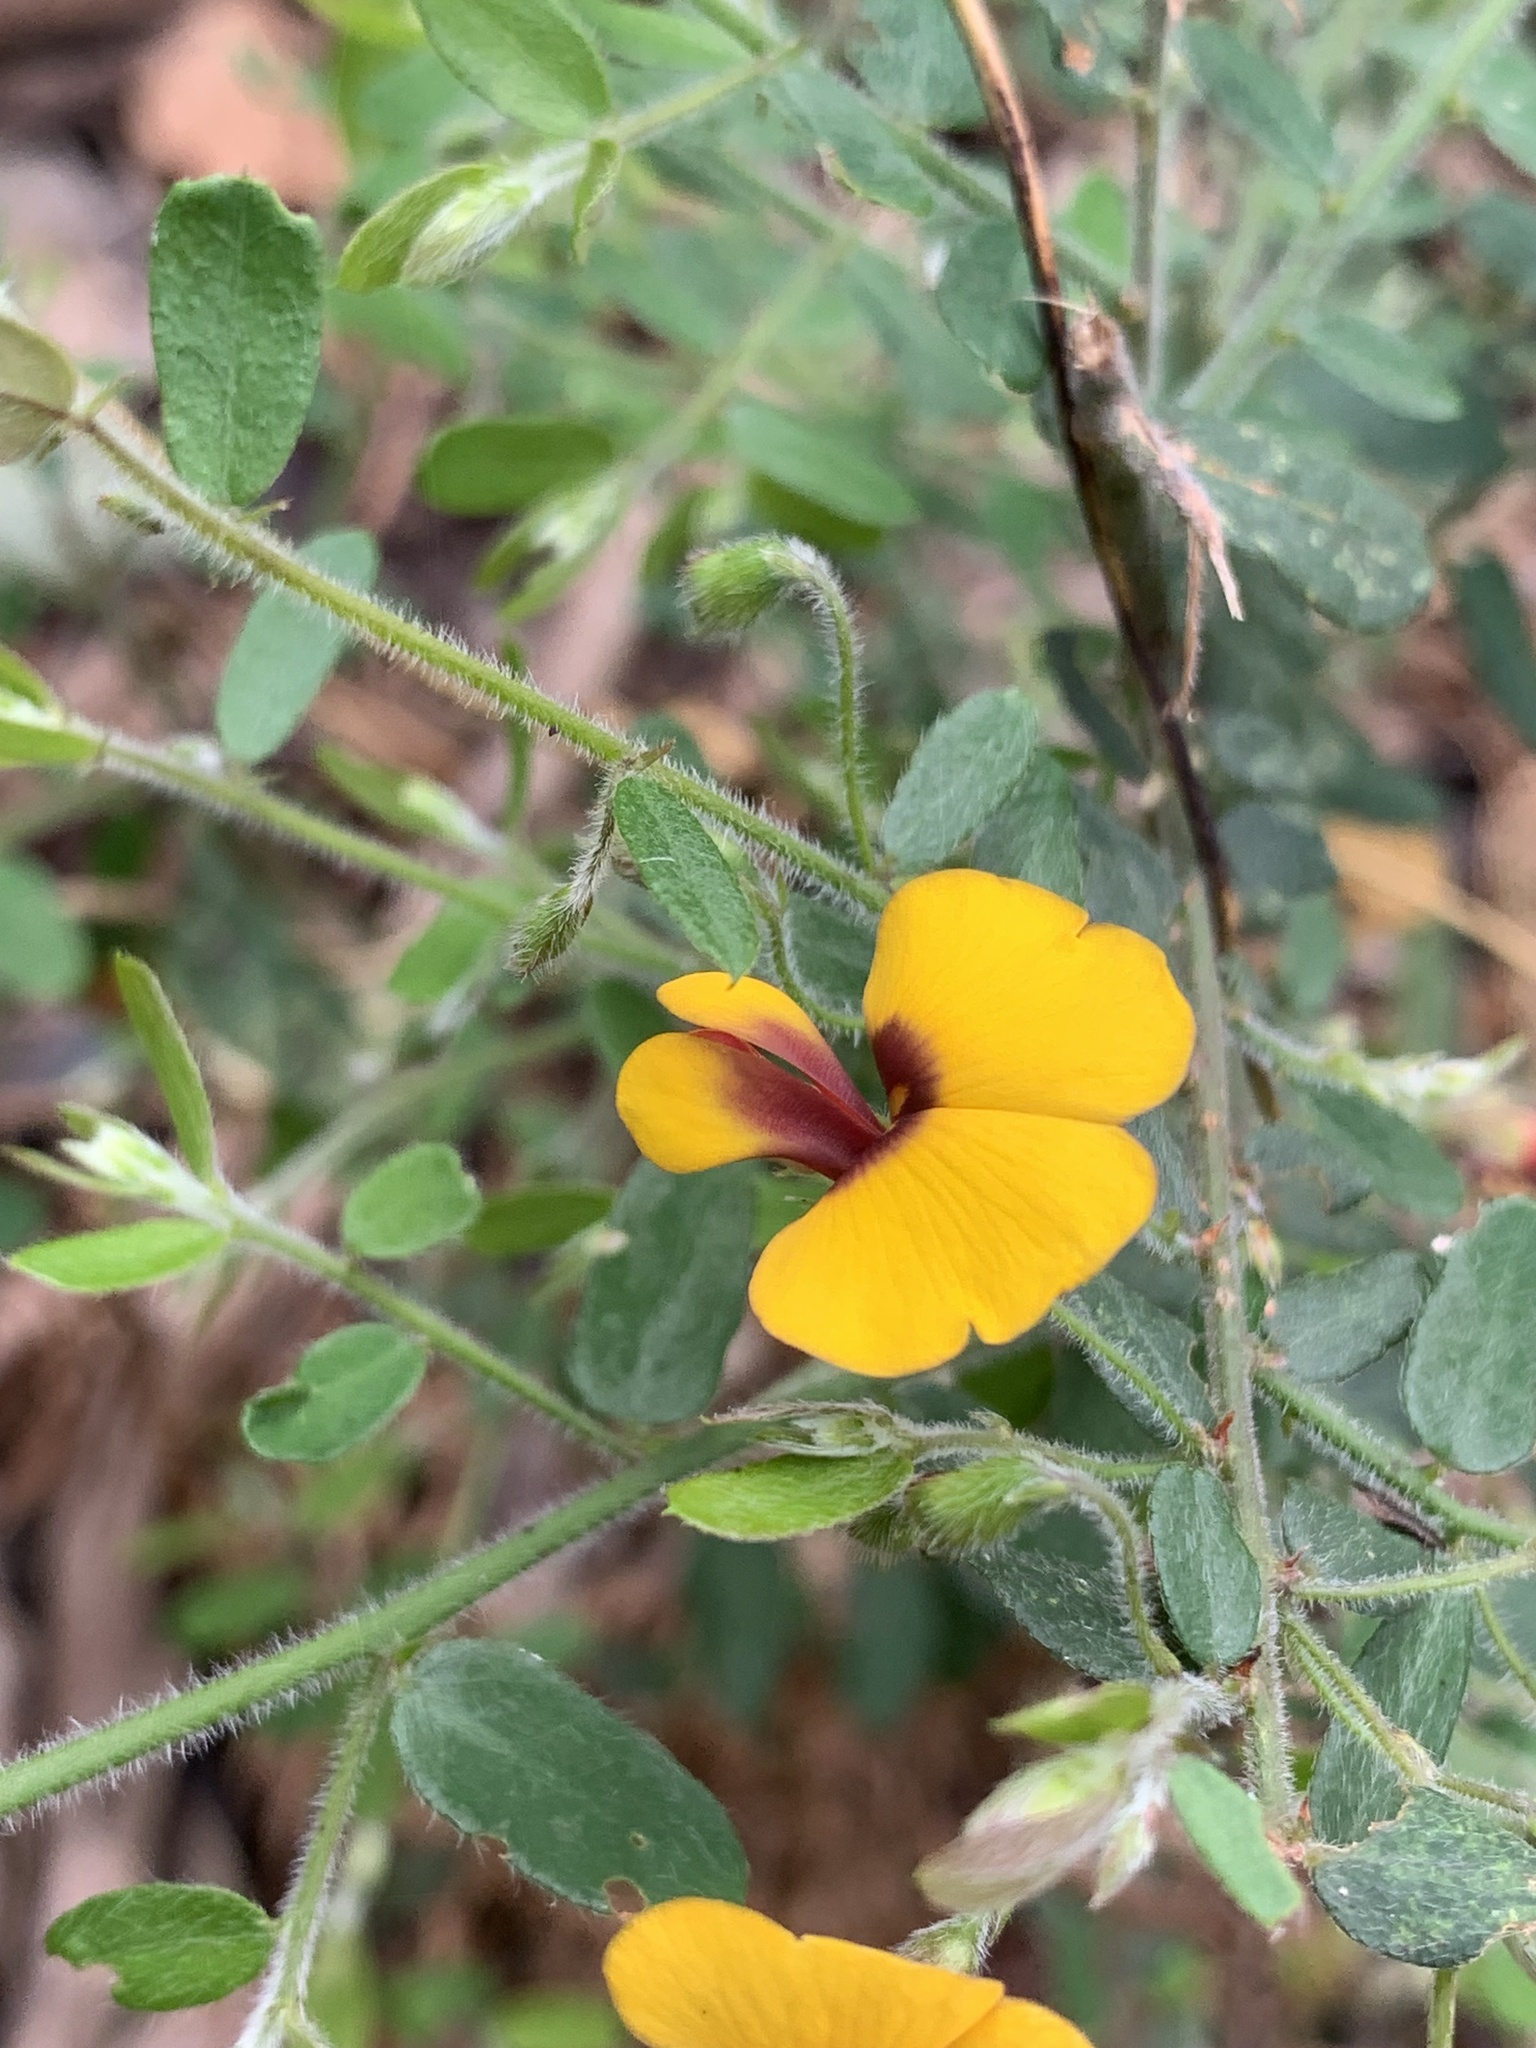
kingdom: Plantae
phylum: Tracheophyta
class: Magnoliopsida
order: Fabales
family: Fabaceae
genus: Bossiaea
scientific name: Bossiaea disticha
